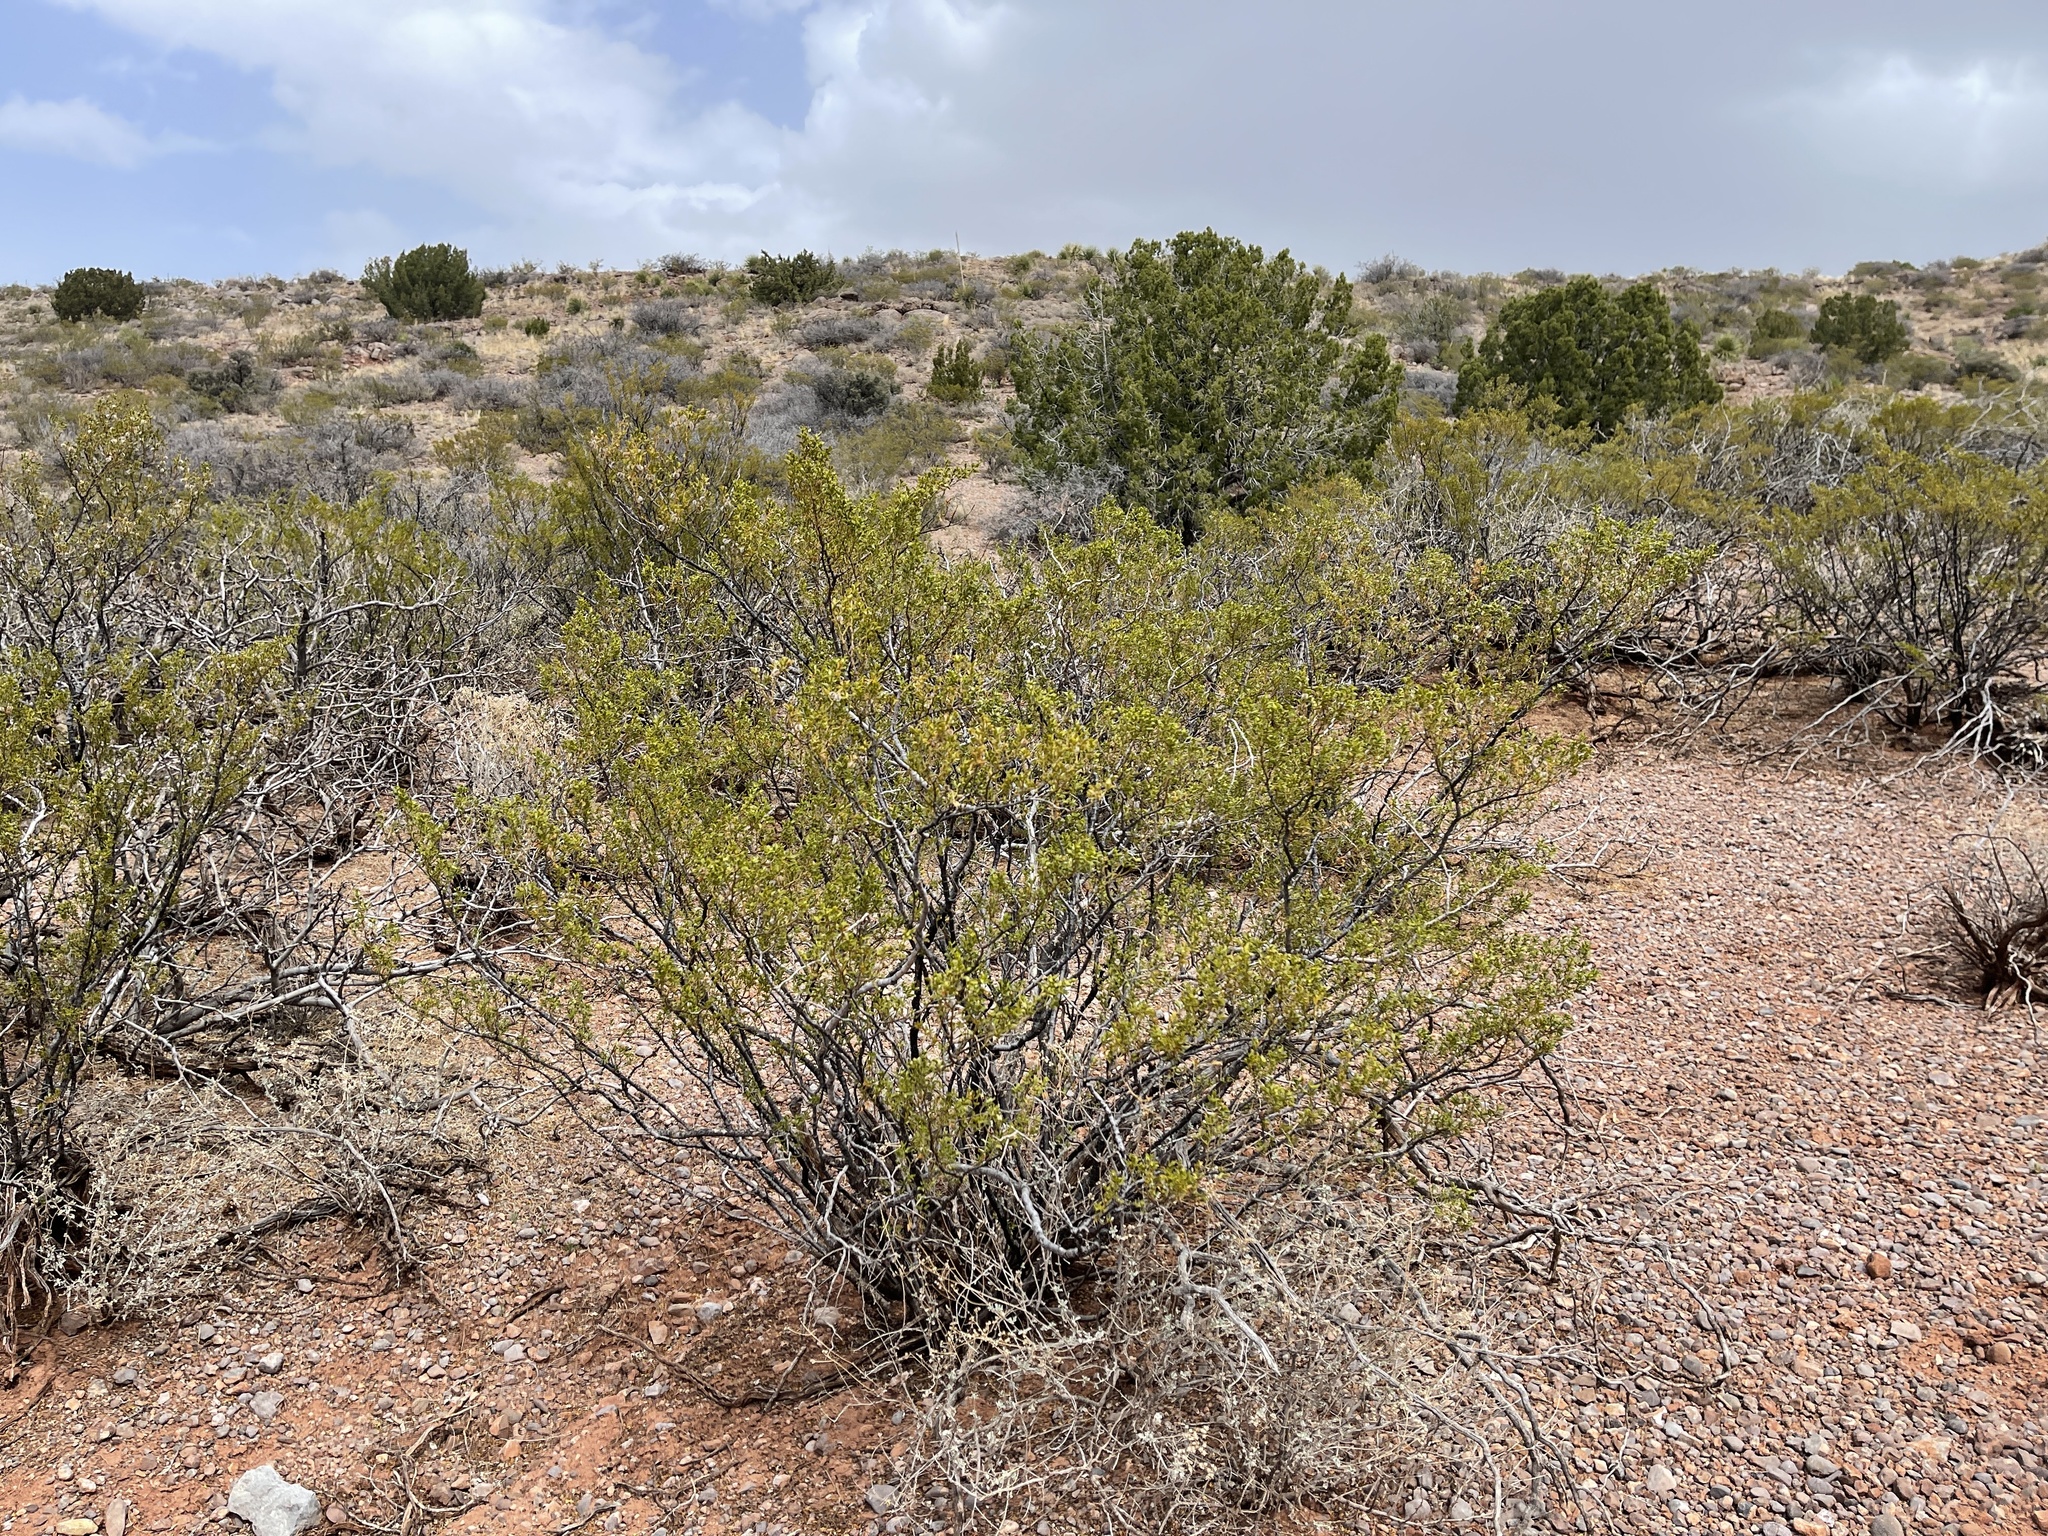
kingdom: Plantae
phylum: Tracheophyta
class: Magnoliopsida
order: Zygophyllales
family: Zygophyllaceae
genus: Larrea
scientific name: Larrea tridentata
